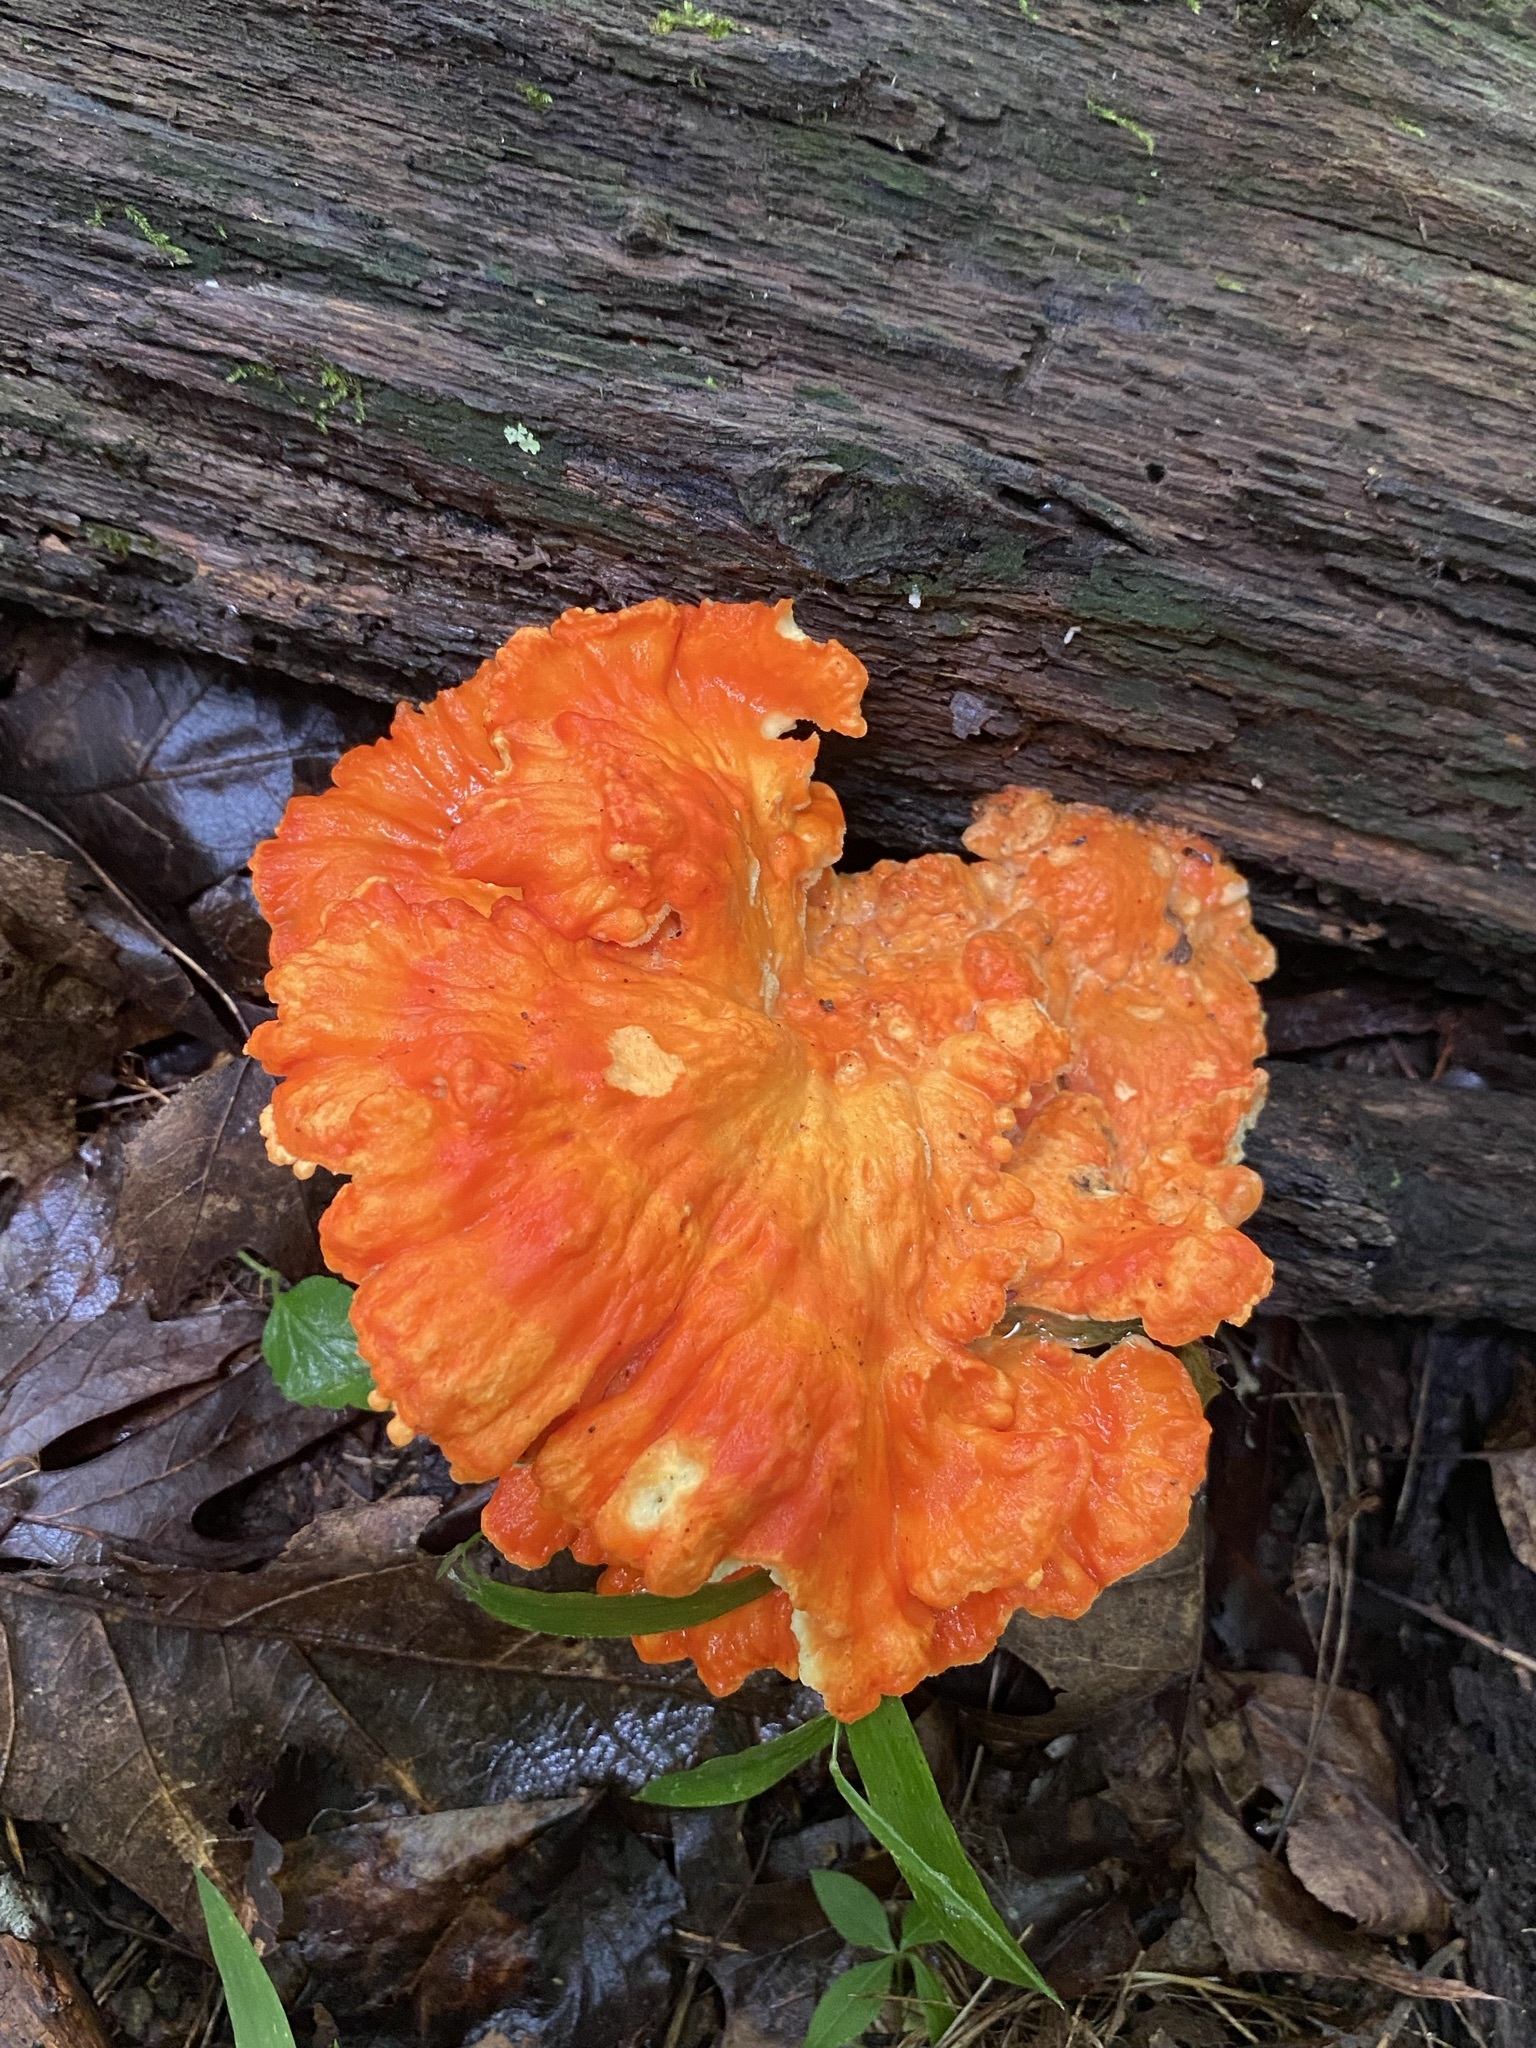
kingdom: Fungi
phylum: Basidiomycota
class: Agaricomycetes
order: Polyporales
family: Laetiporaceae
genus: Laetiporus
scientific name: Laetiporus sulphureus
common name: Chicken of the woods
